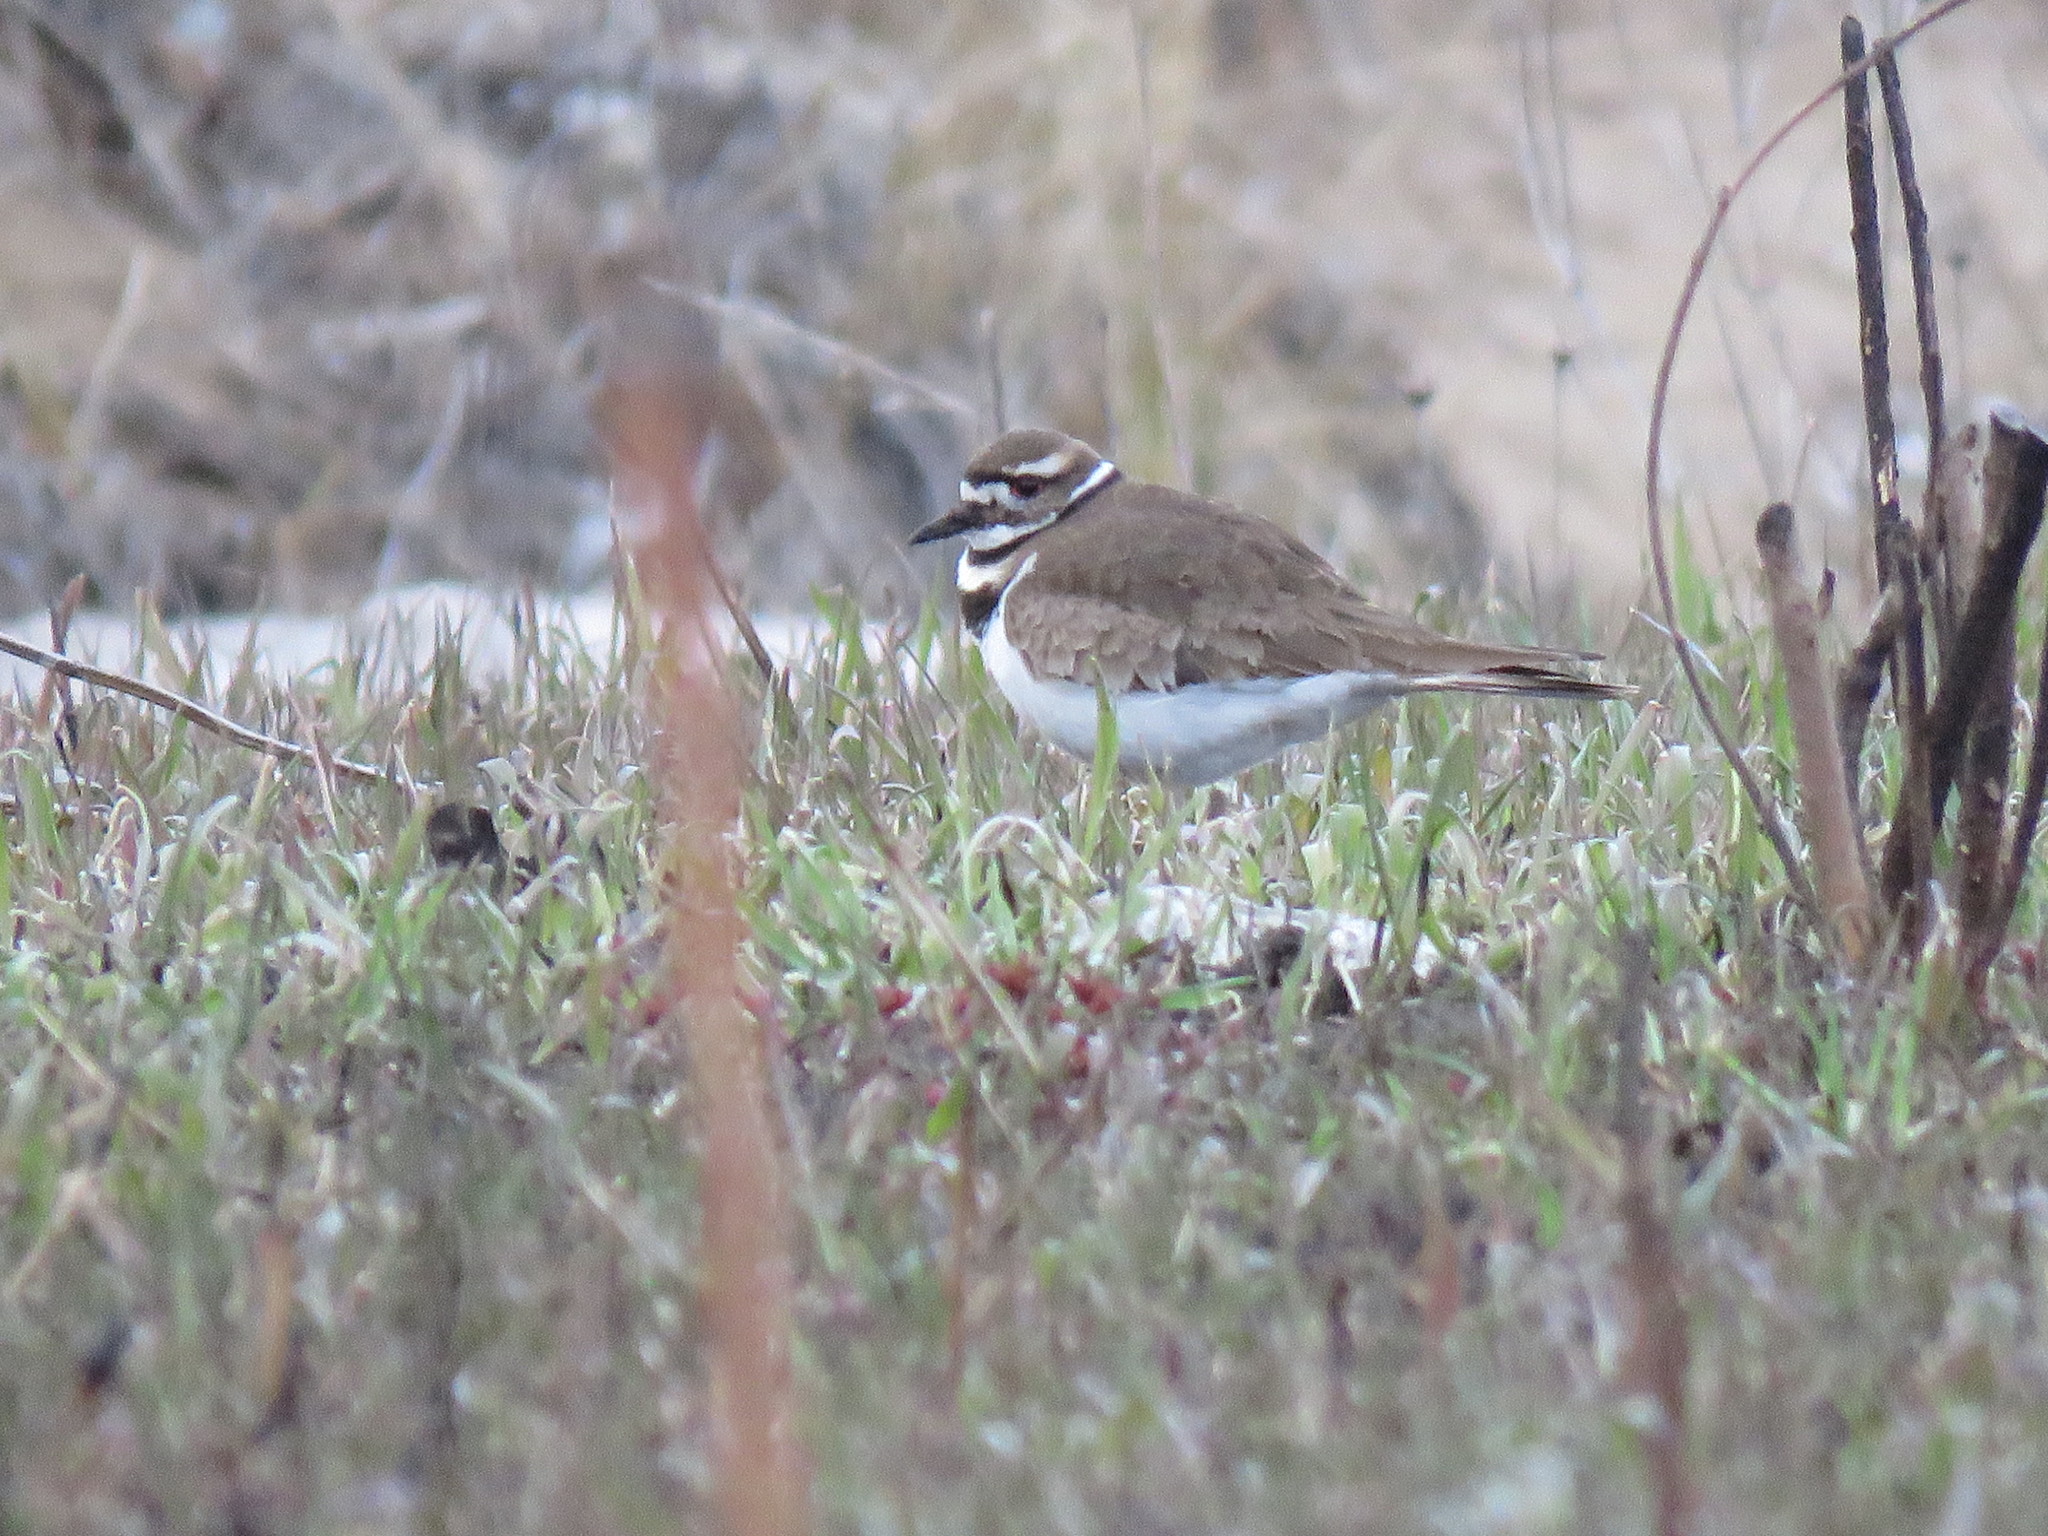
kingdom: Animalia
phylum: Chordata
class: Aves
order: Charadriiformes
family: Charadriidae
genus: Charadrius
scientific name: Charadrius vociferus
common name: Killdeer
